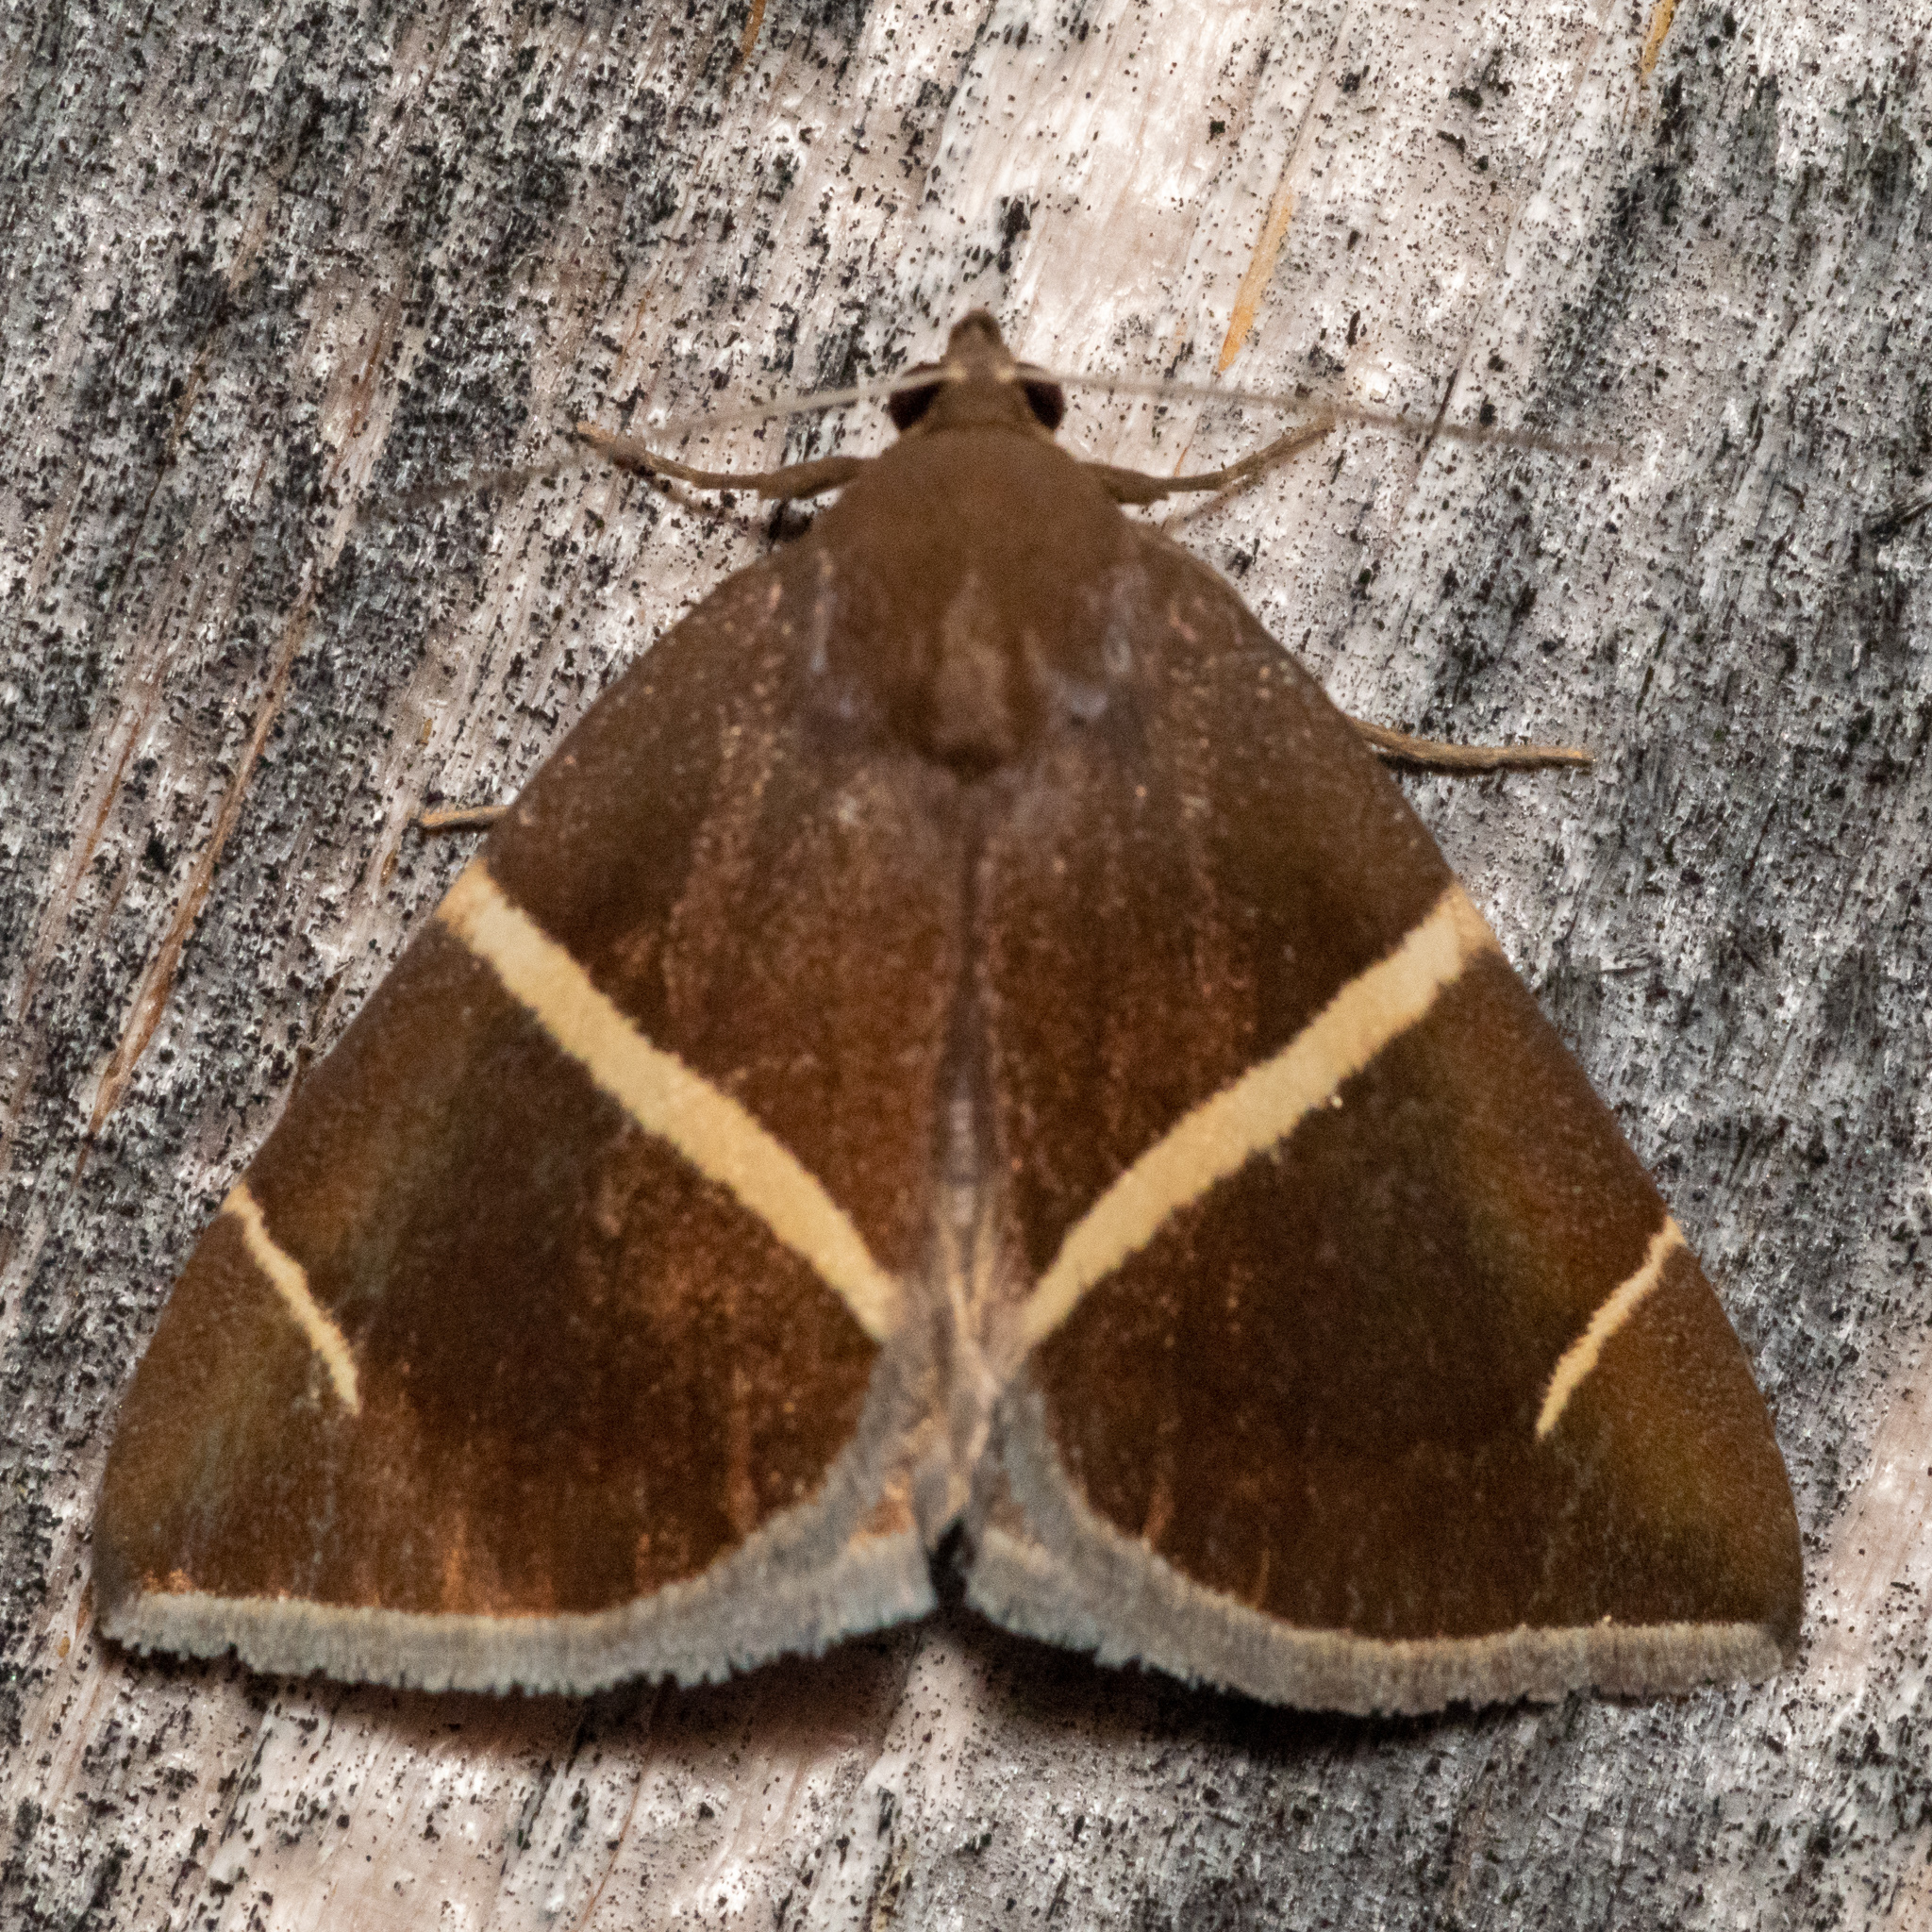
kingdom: Animalia
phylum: Arthropoda
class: Insecta
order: Lepidoptera
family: Erebidae
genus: Argyrostrotis
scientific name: Argyrostrotis anilis
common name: Short-lined chocolate
